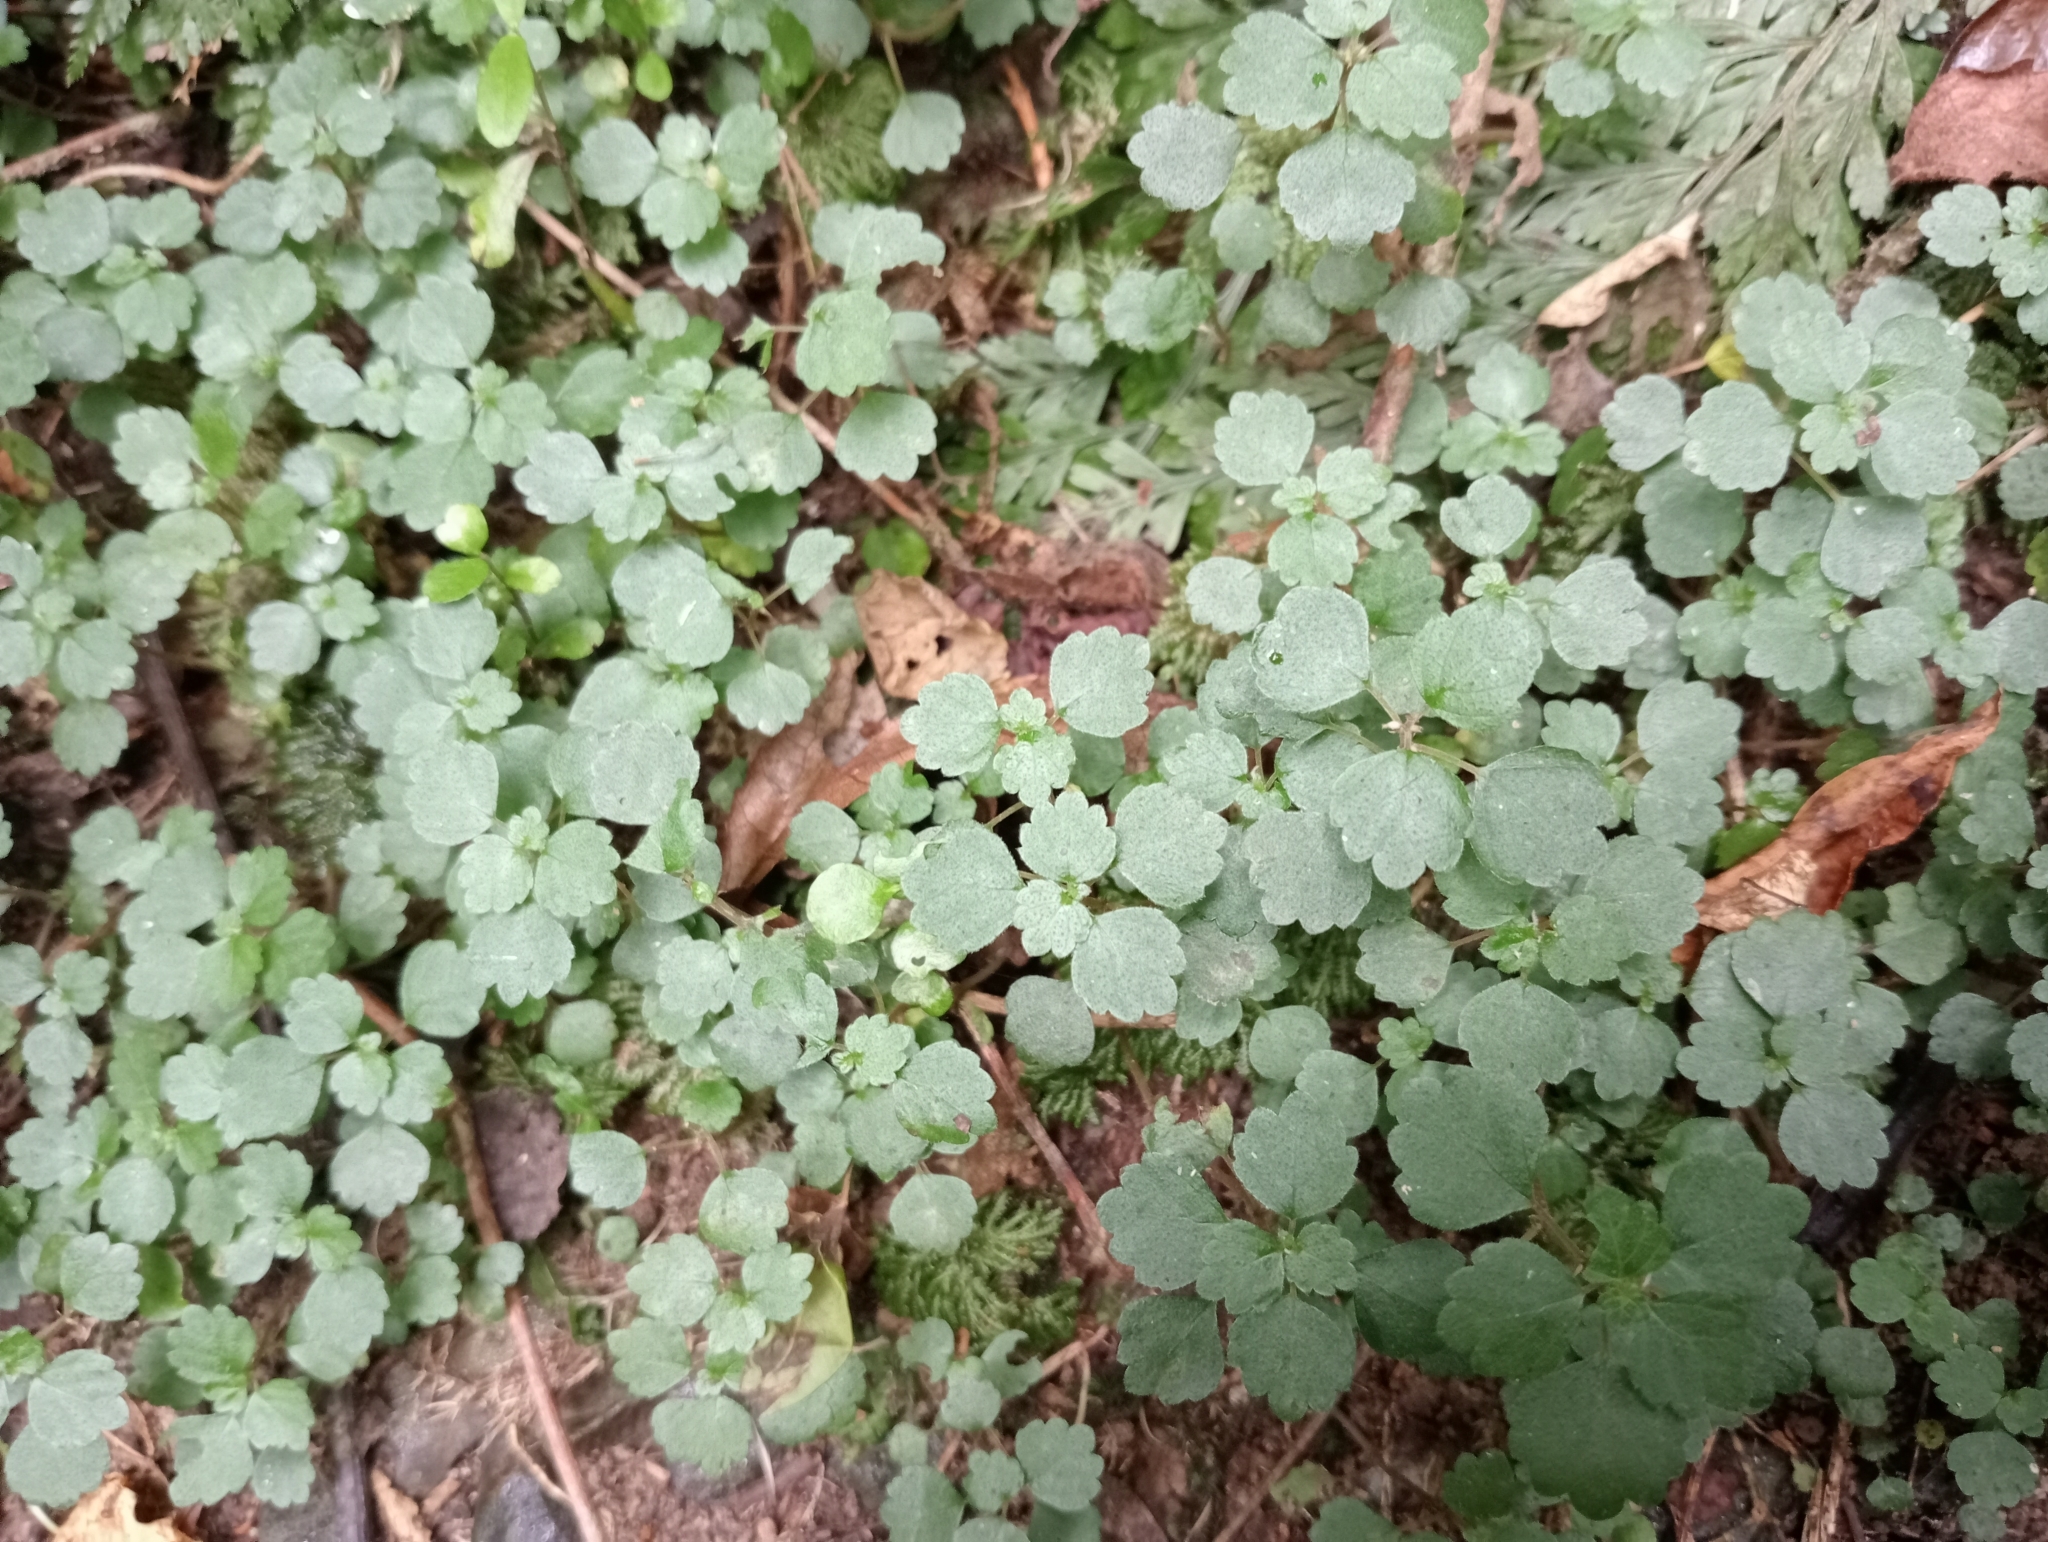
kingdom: Plantae
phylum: Tracheophyta
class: Magnoliopsida
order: Rosales
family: Urticaceae
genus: Australina
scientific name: Australina pusilla
